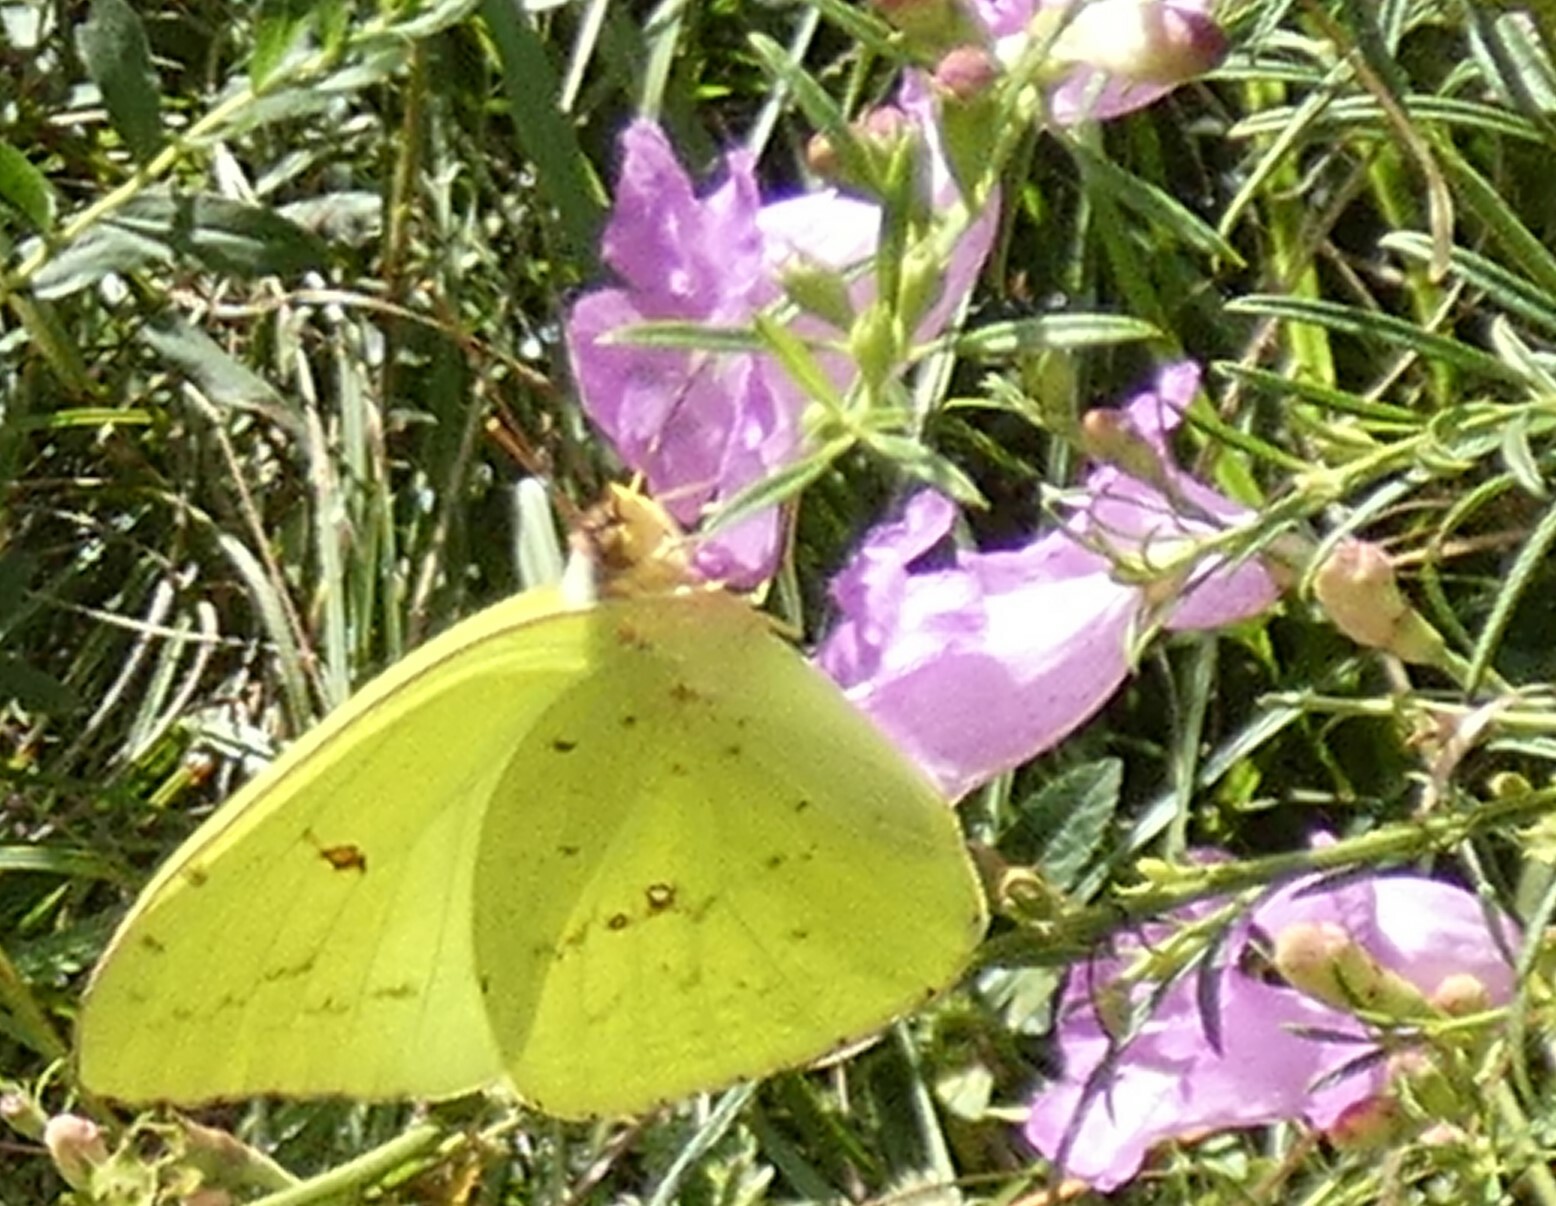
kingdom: Animalia
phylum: Arthropoda
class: Insecta
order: Lepidoptera
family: Pieridae
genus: Phoebis
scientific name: Phoebis sennae
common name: Cloudless sulphur
